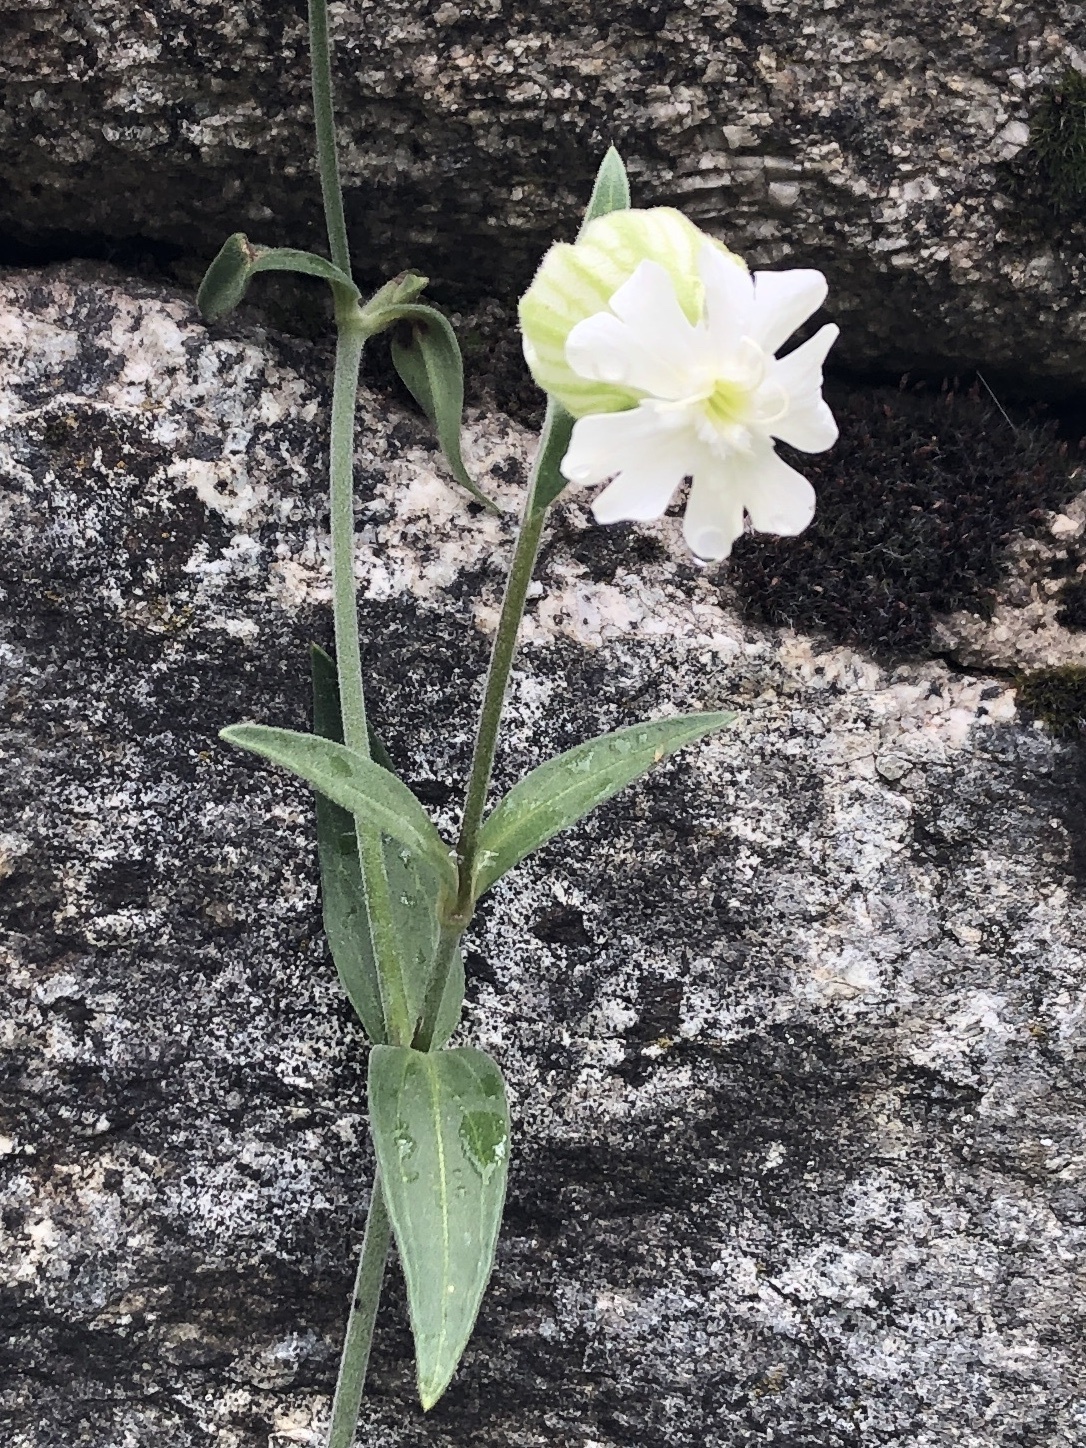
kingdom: Plantae
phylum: Tracheophyta
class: Magnoliopsida
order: Caryophyllales
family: Caryophyllaceae
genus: Silene
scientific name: Silene latifolia
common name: White campion
